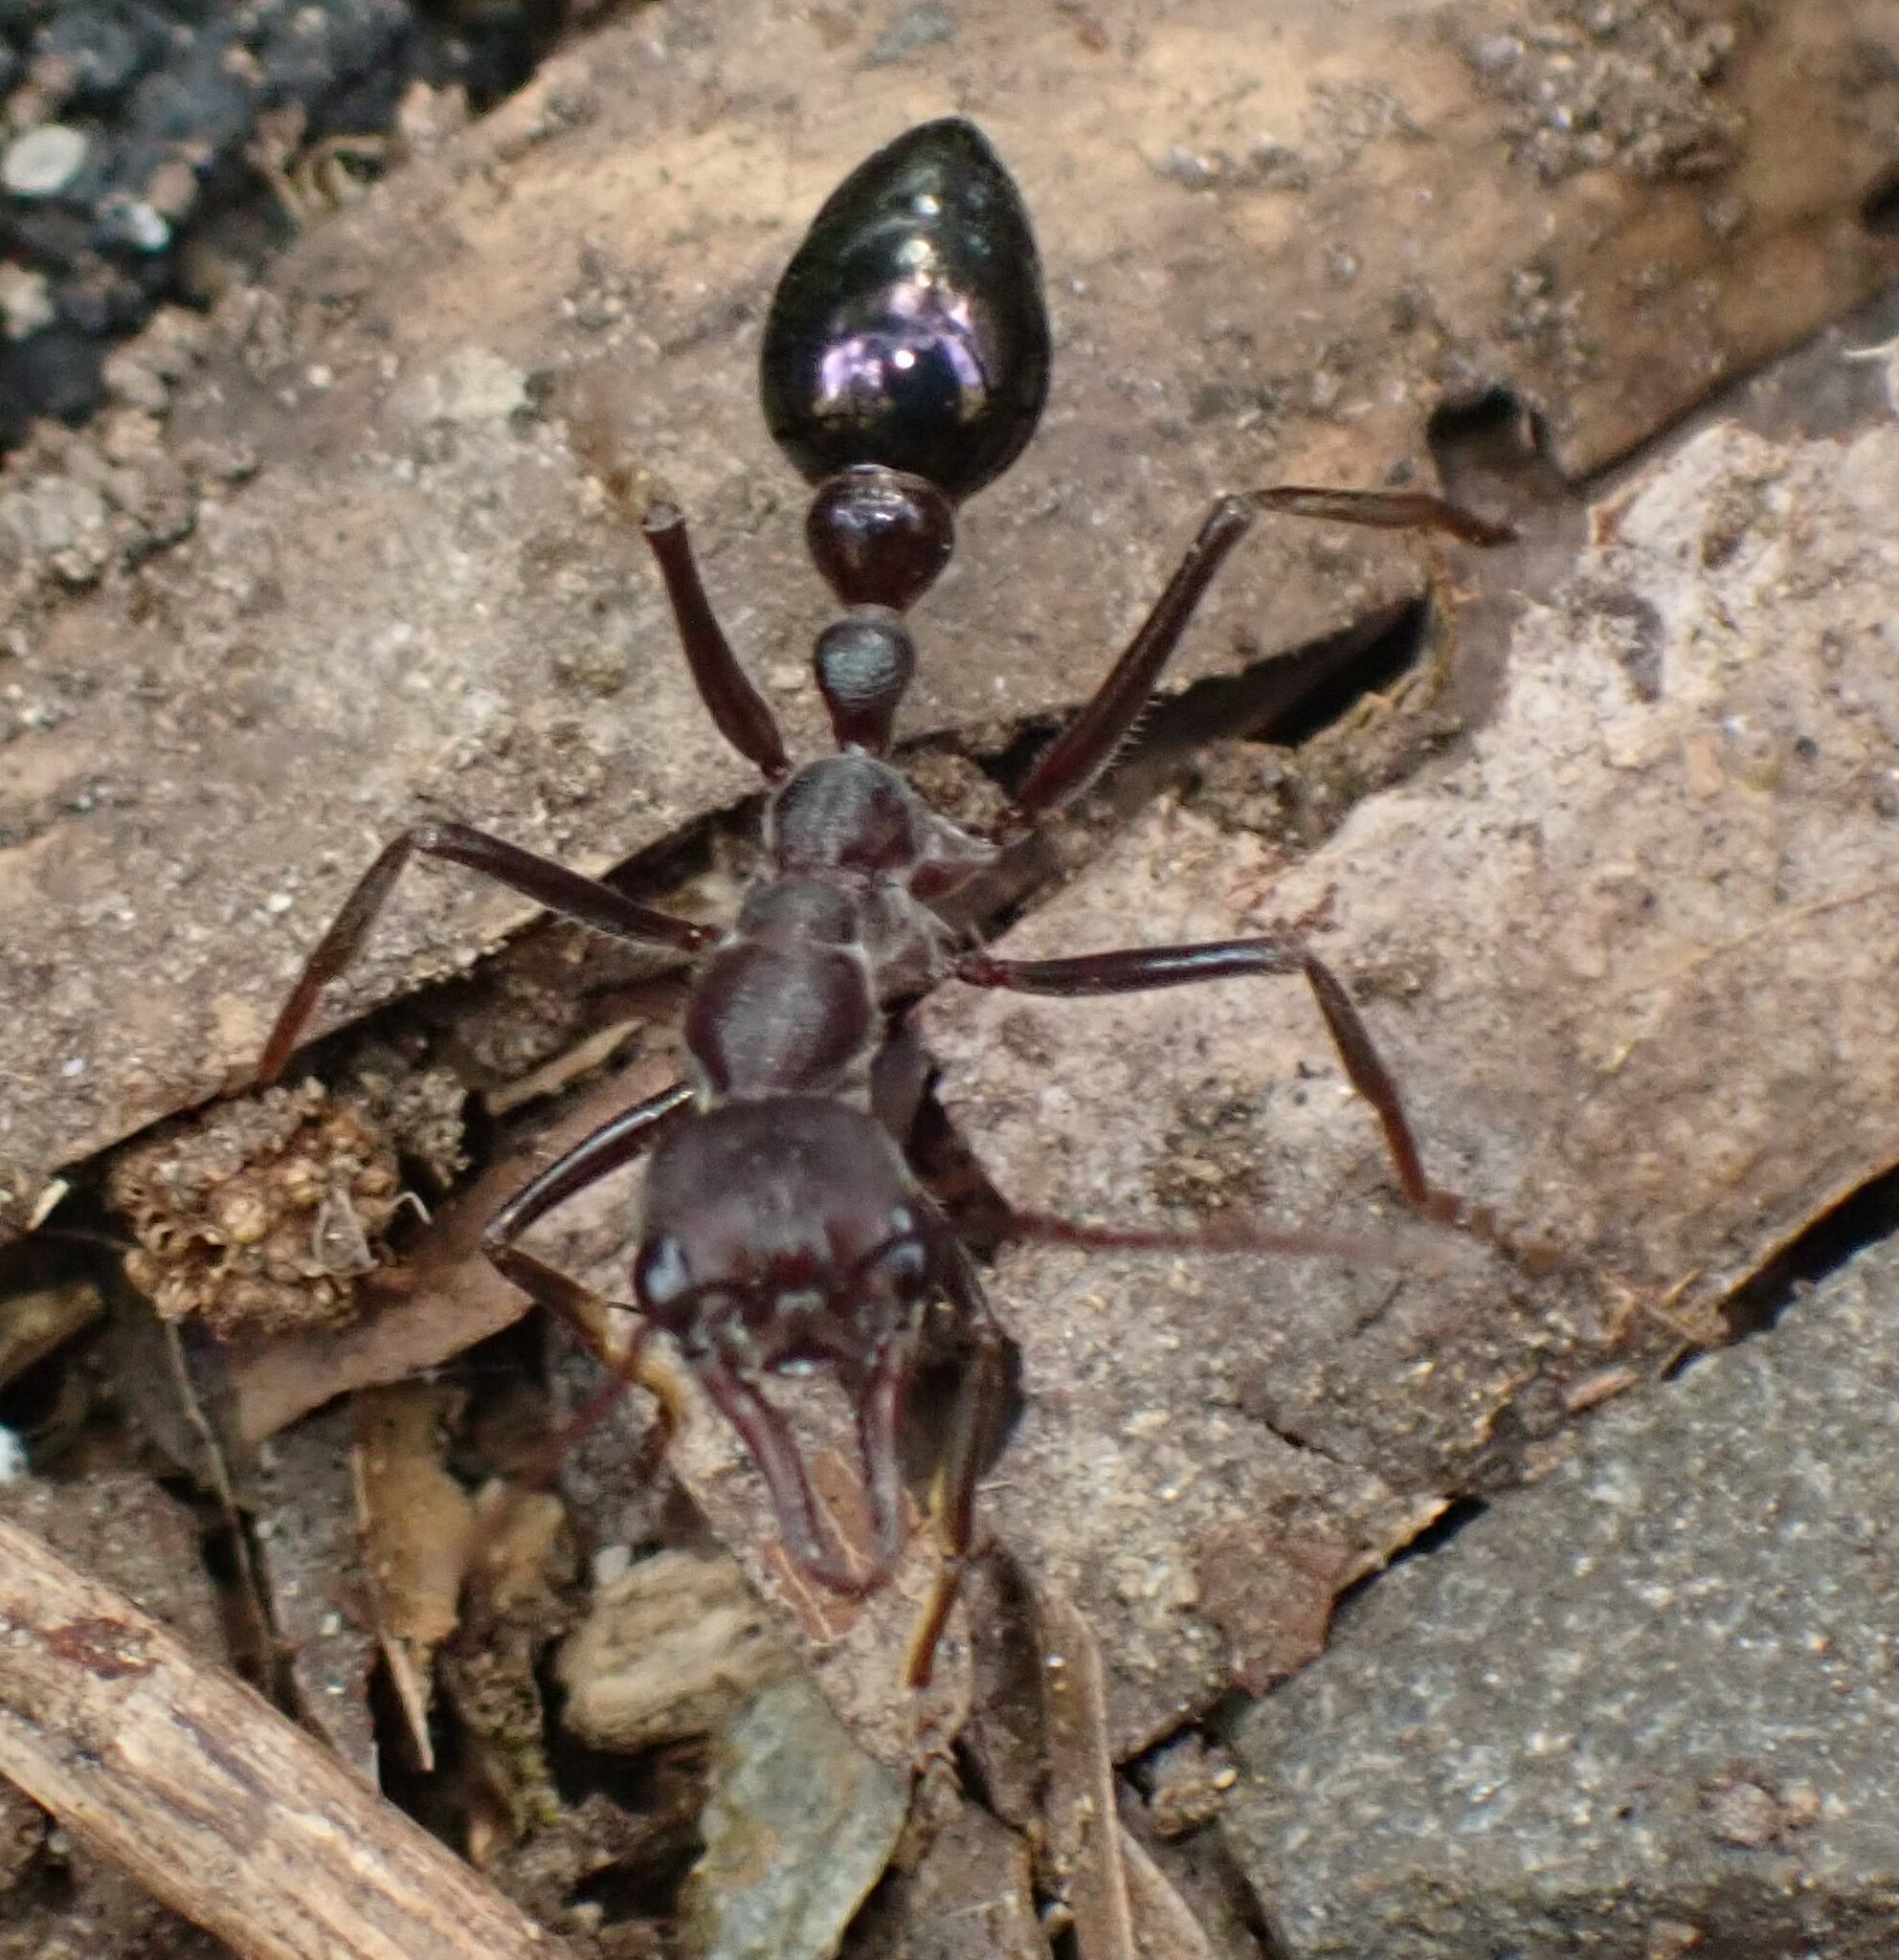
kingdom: Animalia
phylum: Arthropoda
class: Insecta
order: Hymenoptera
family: Formicidae
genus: Myrmecia
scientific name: Myrmecia forficata
